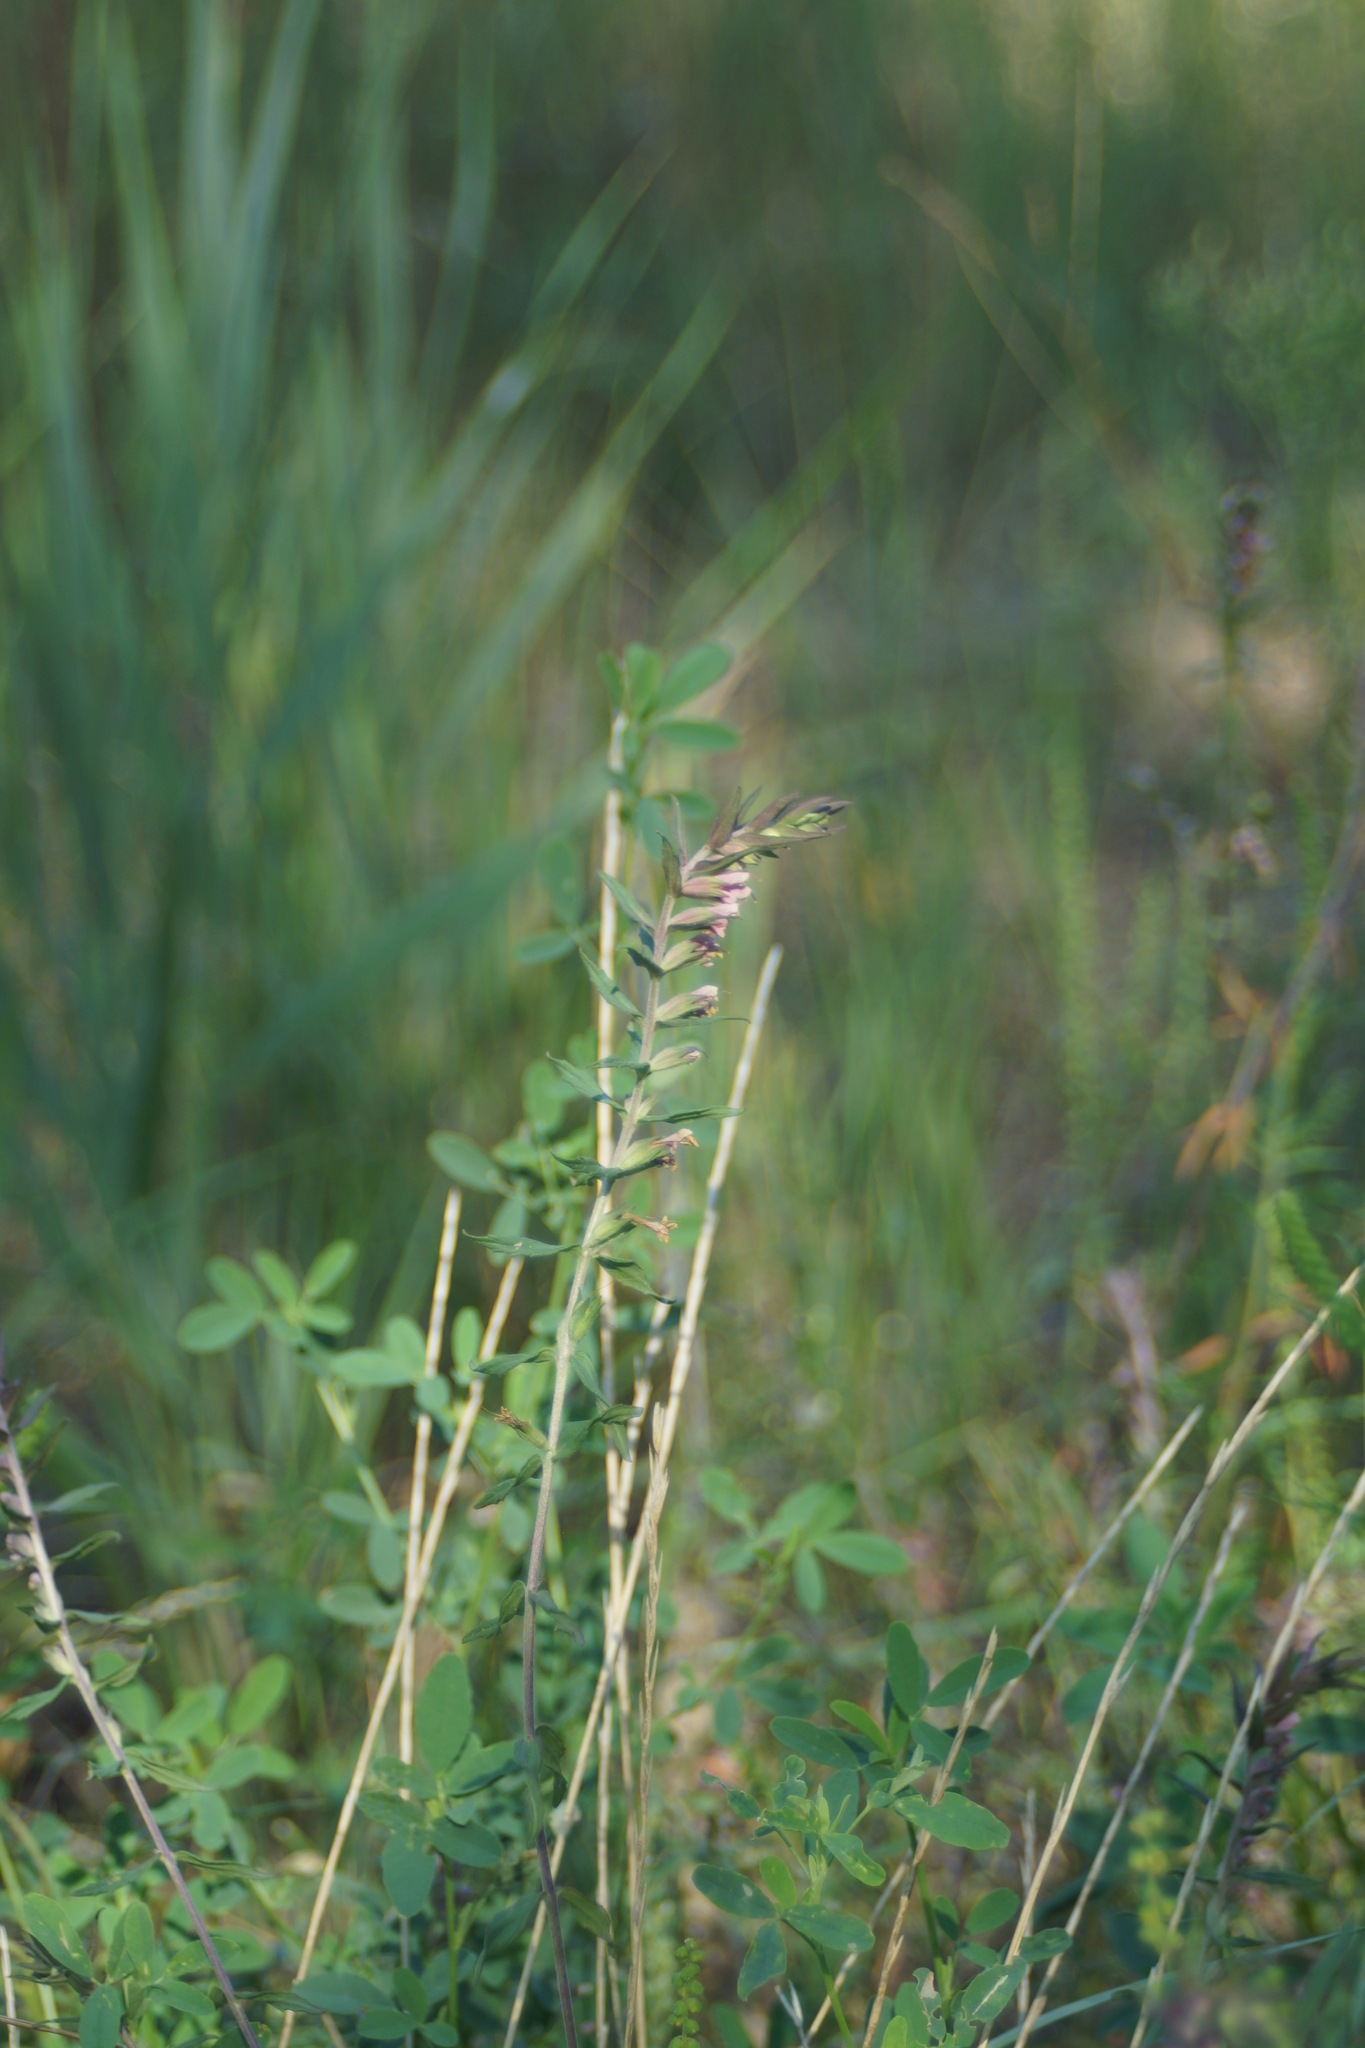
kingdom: Plantae
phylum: Tracheophyta
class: Magnoliopsida
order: Lamiales
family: Orobanchaceae
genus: Odontites
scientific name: Odontites vulgaris
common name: Broomrape
